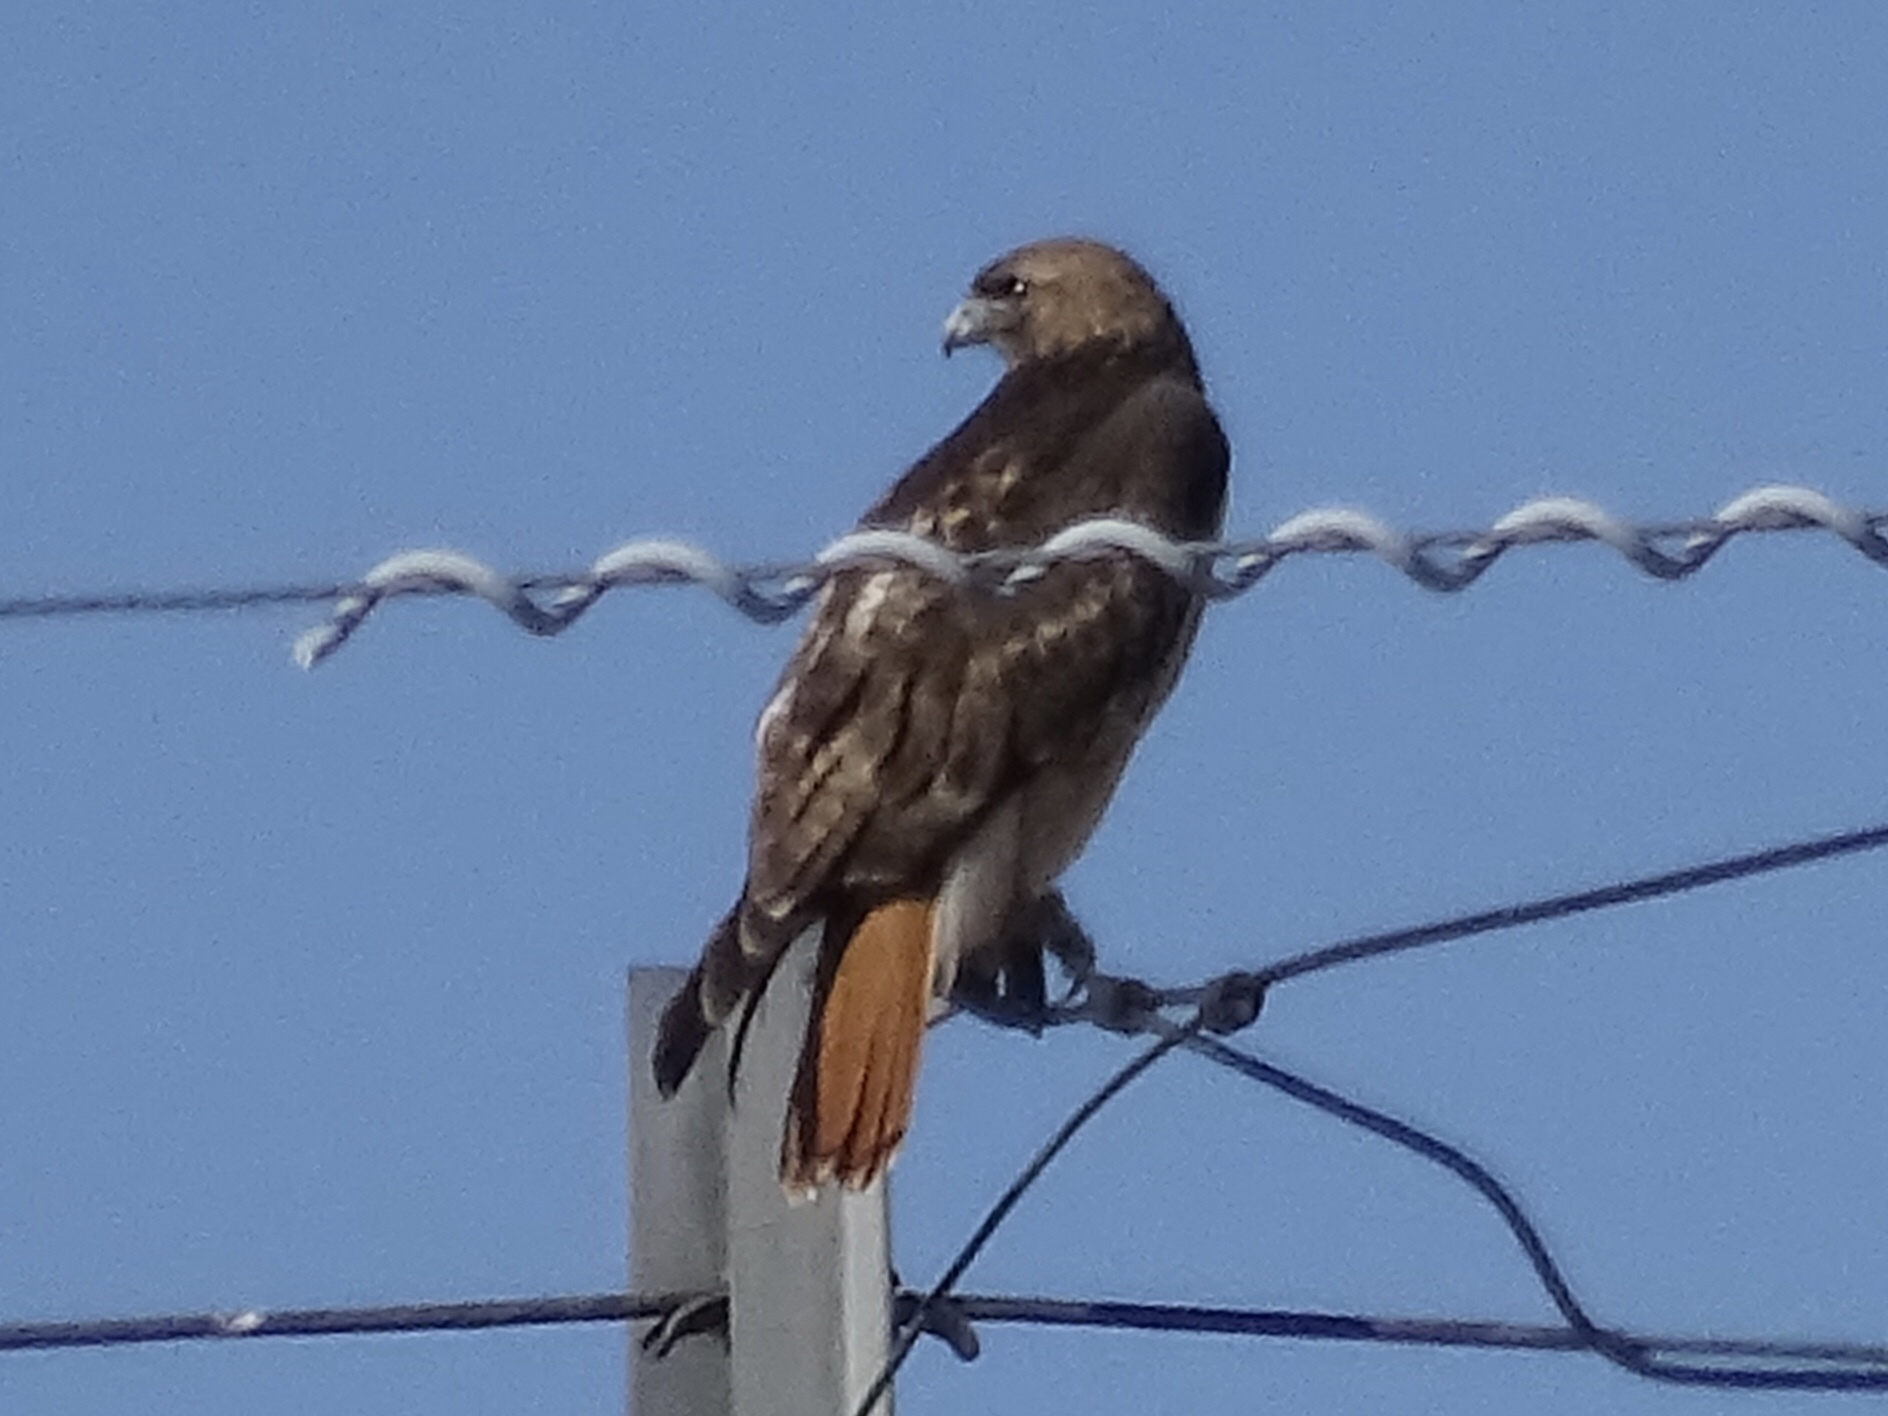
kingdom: Animalia
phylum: Chordata
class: Aves
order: Accipitriformes
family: Accipitridae
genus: Buteo
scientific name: Buteo jamaicensis
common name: Red-tailed hawk
